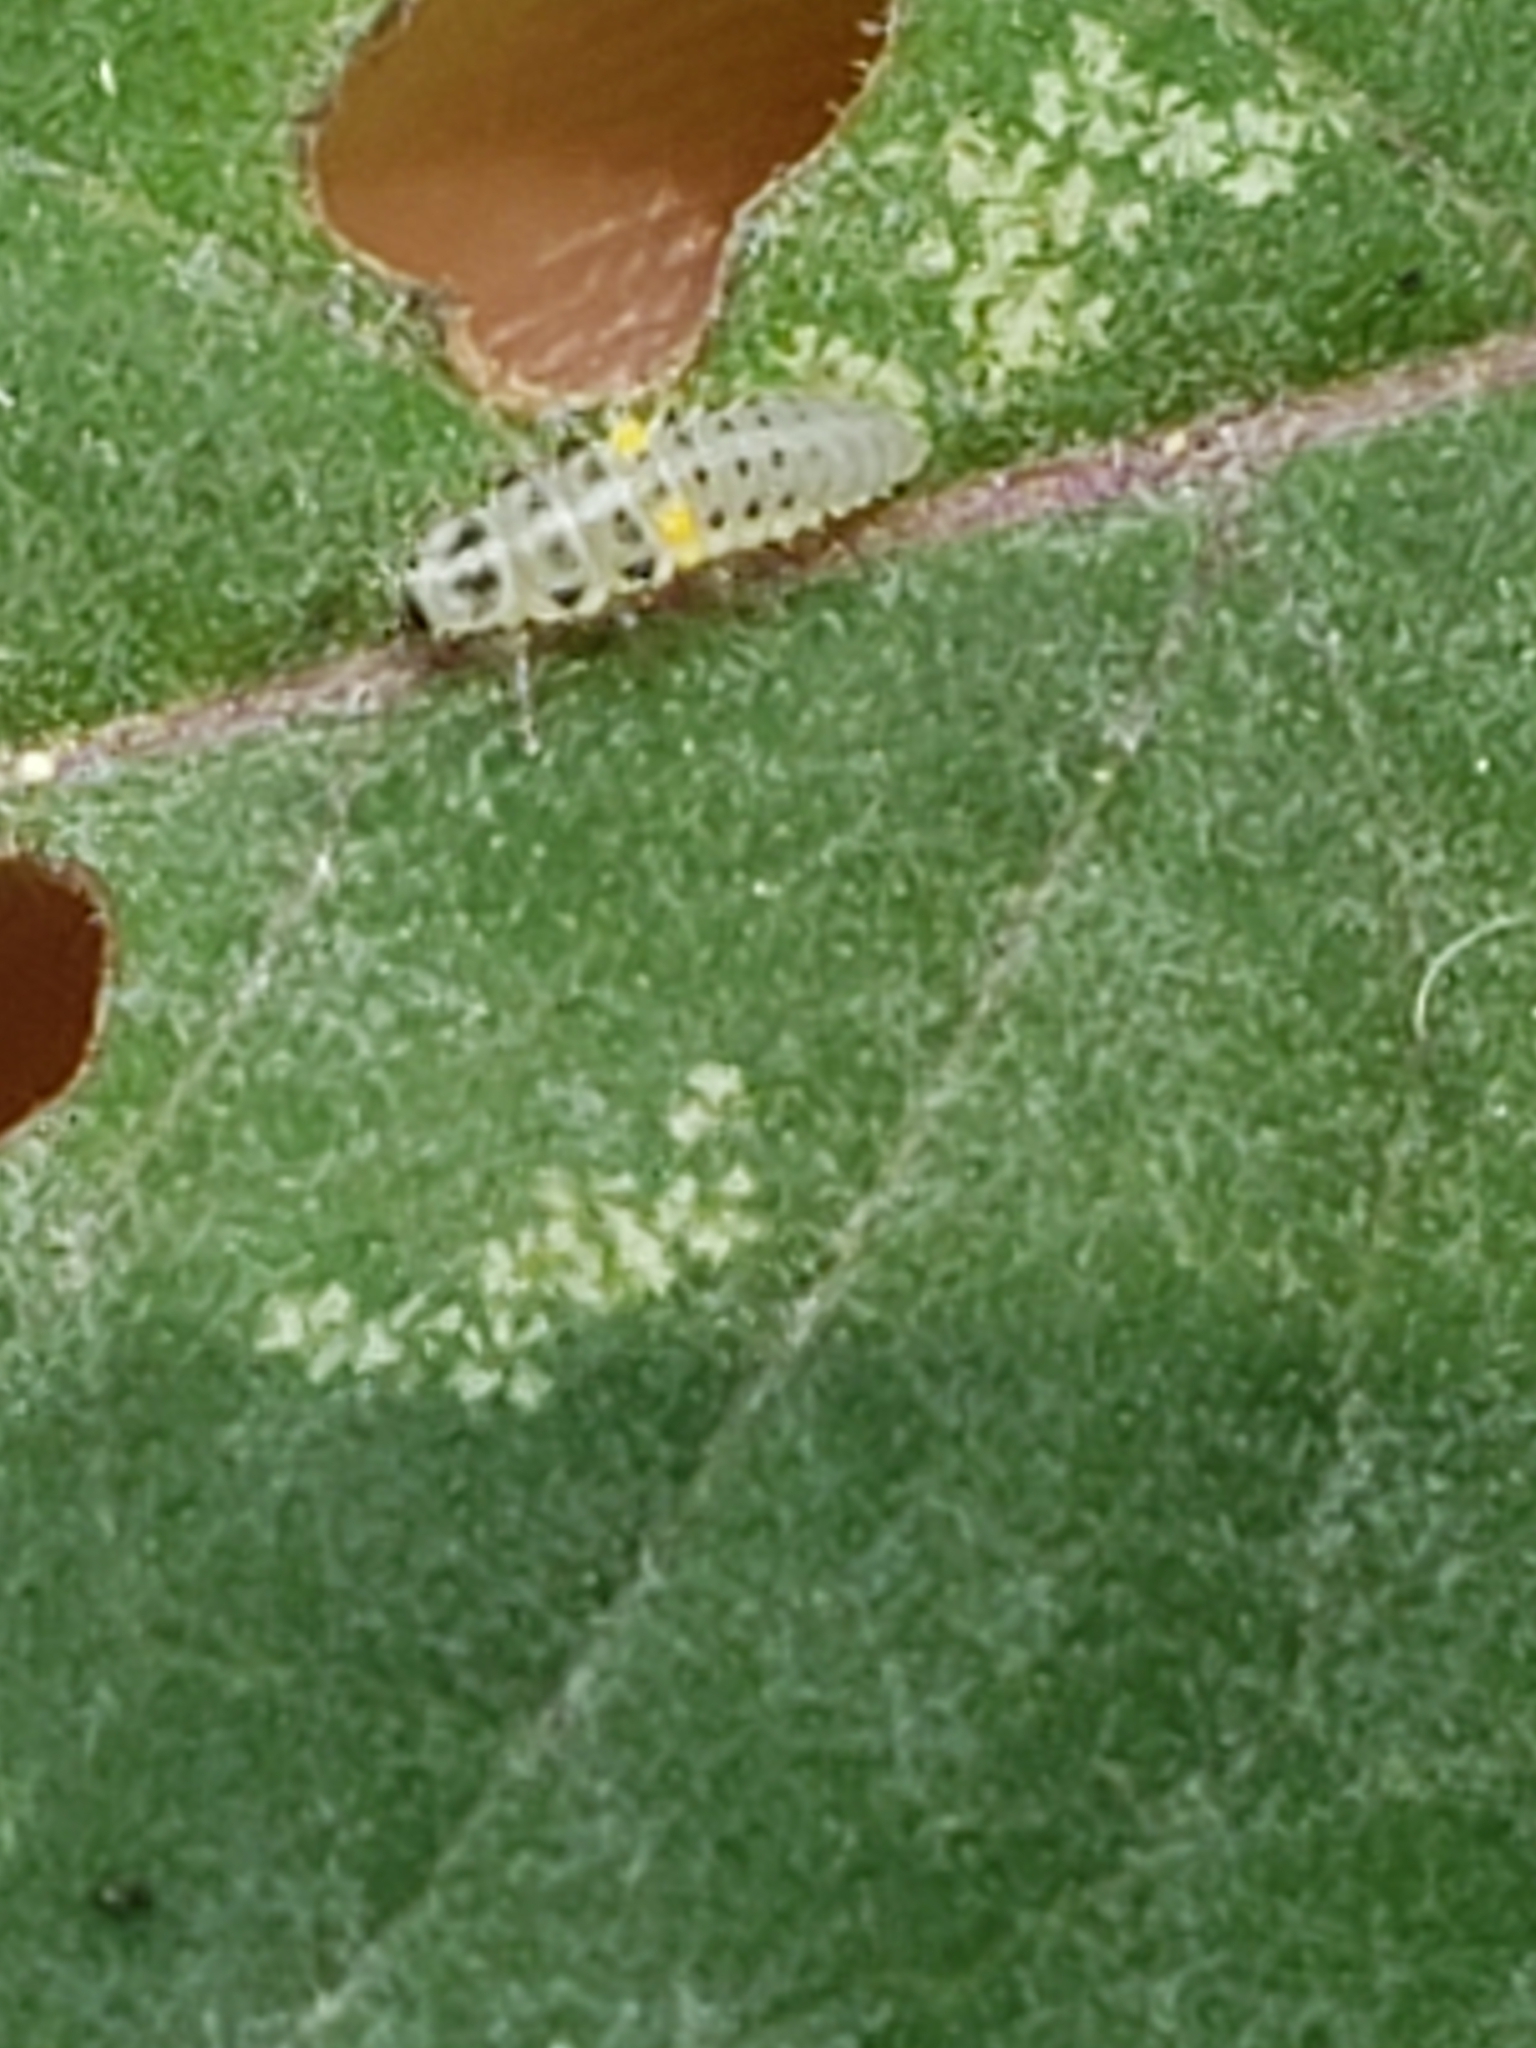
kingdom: Animalia
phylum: Arthropoda
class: Insecta
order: Coleoptera
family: Coccinellidae
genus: Psyllobora
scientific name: Psyllobora vigintimaculata
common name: Ladybird beetle
